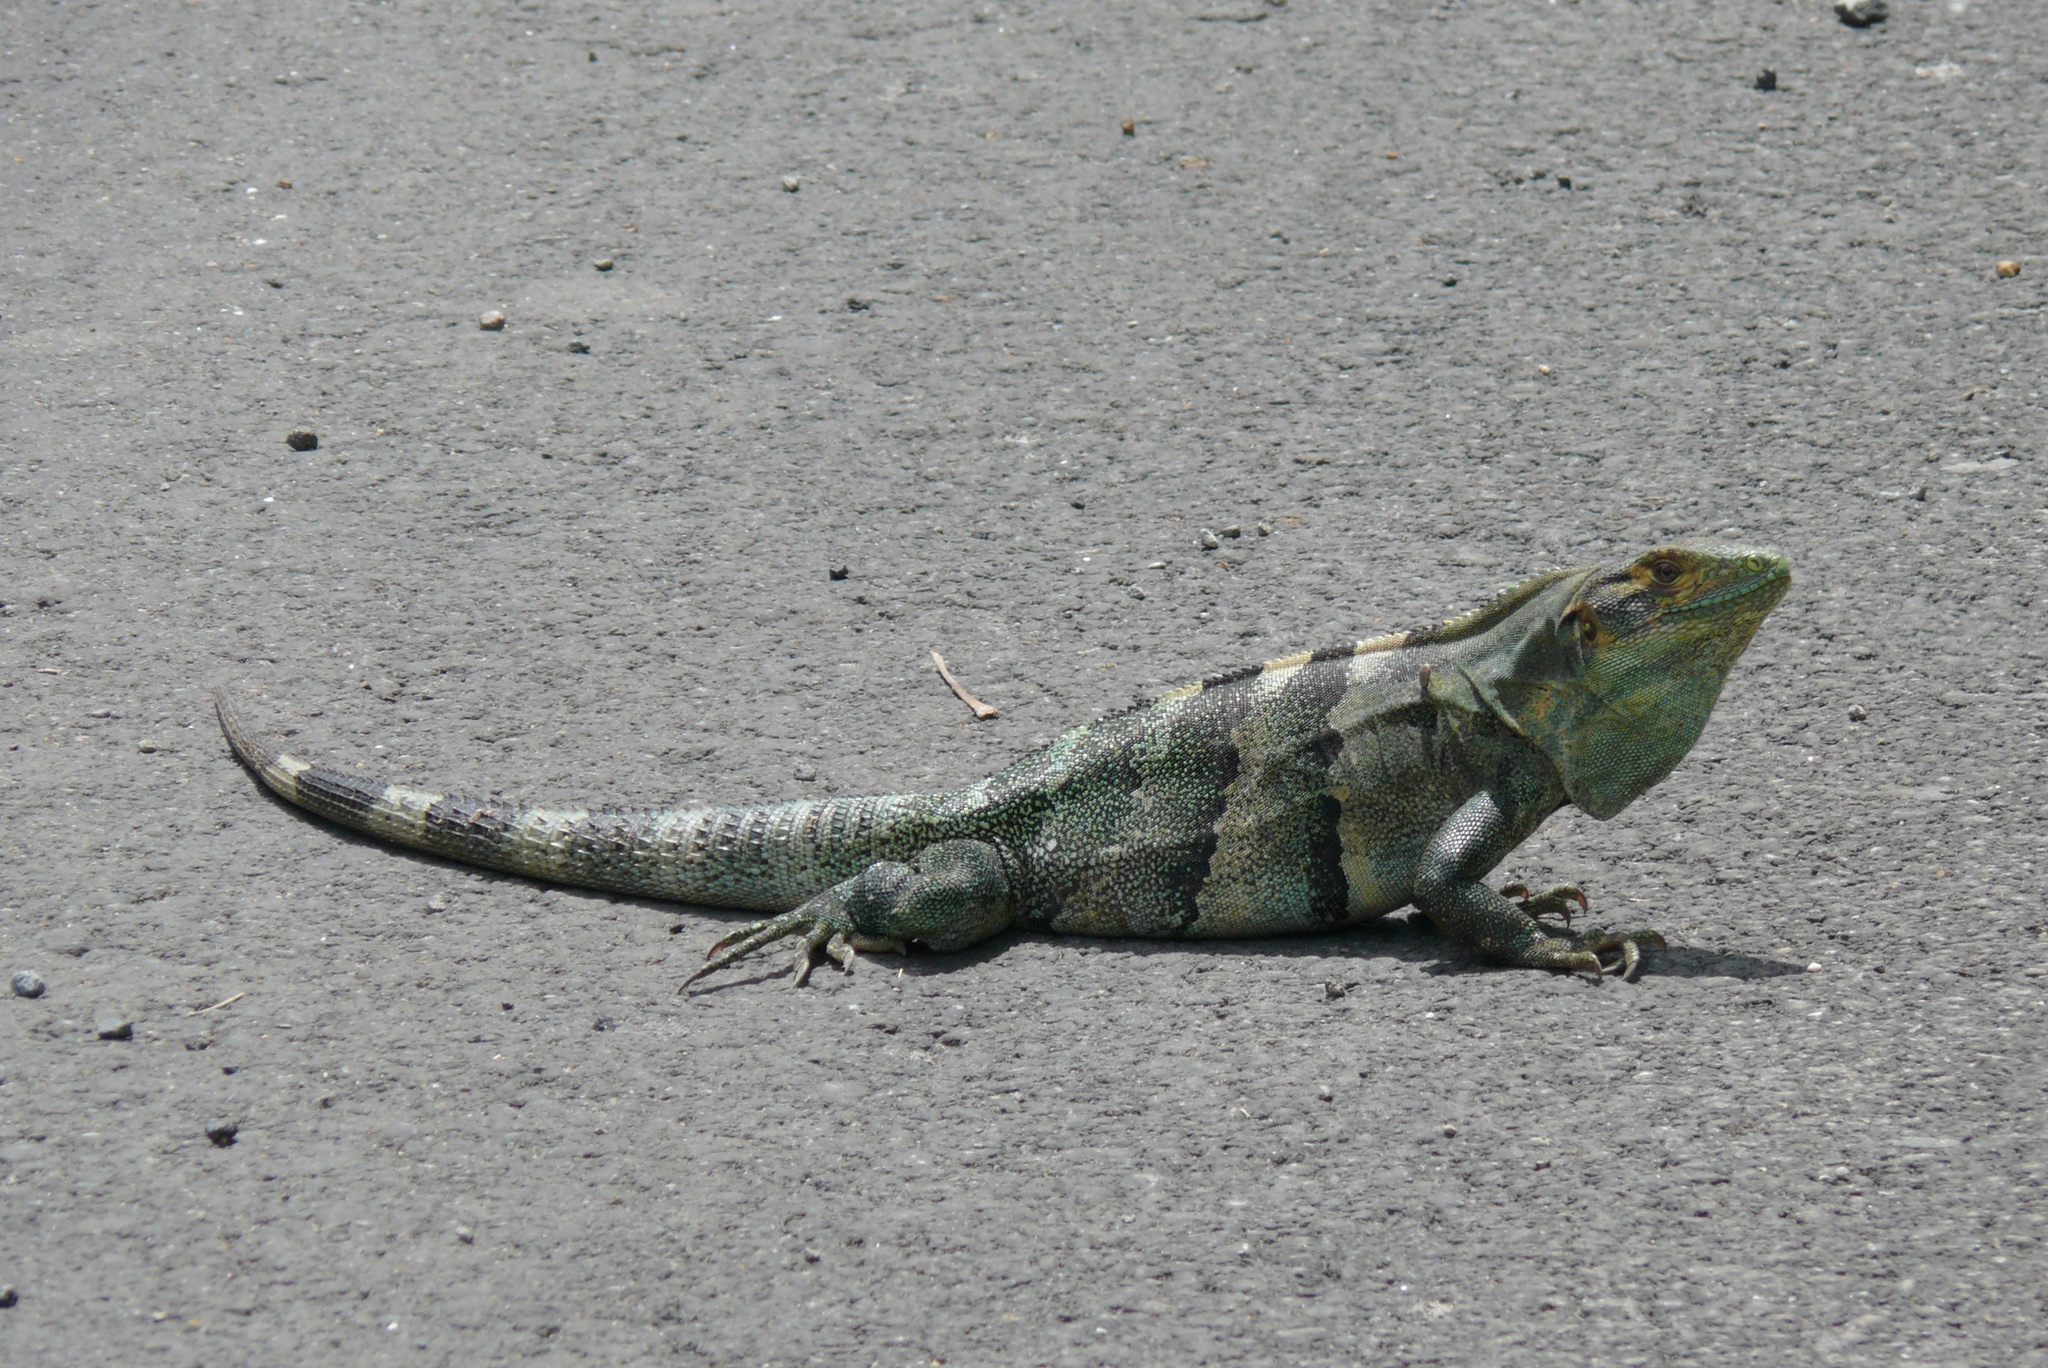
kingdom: Animalia
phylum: Chordata
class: Squamata
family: Iguanidae
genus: Ctenosaura
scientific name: Ctenosaura similis
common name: Black spiny-tailed iguana
